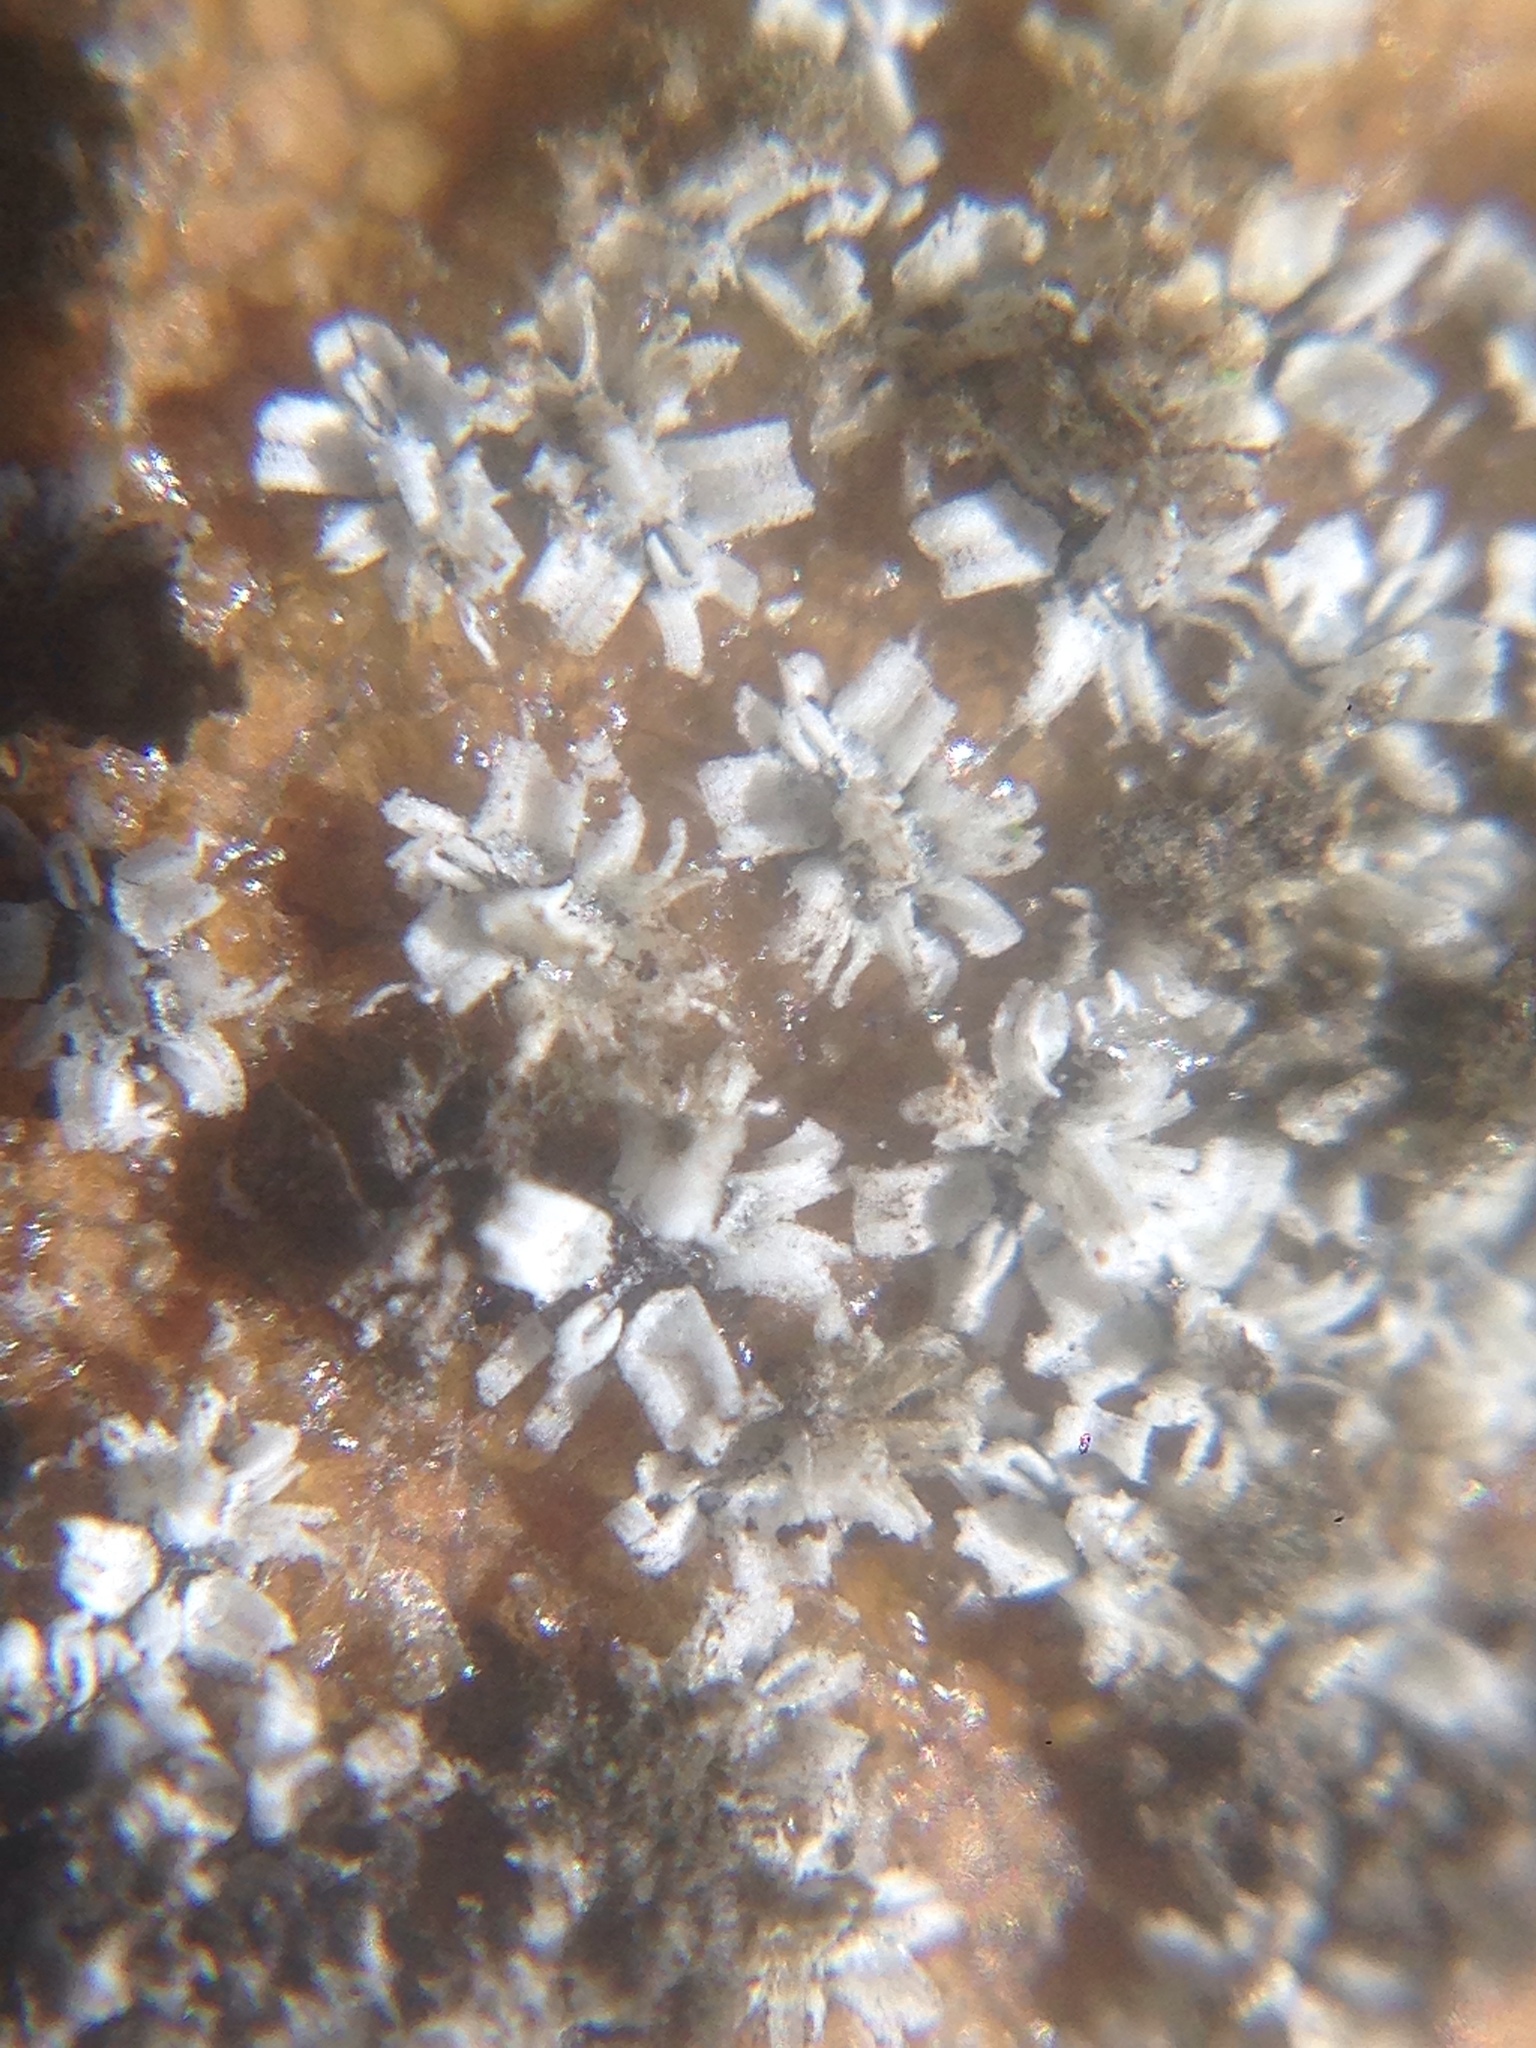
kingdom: Animalia
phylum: Arthropoda
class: Insecta
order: Hemiptera
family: Aleyrodidae
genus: Aleuroplatus
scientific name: Aleuroplatus coronata
